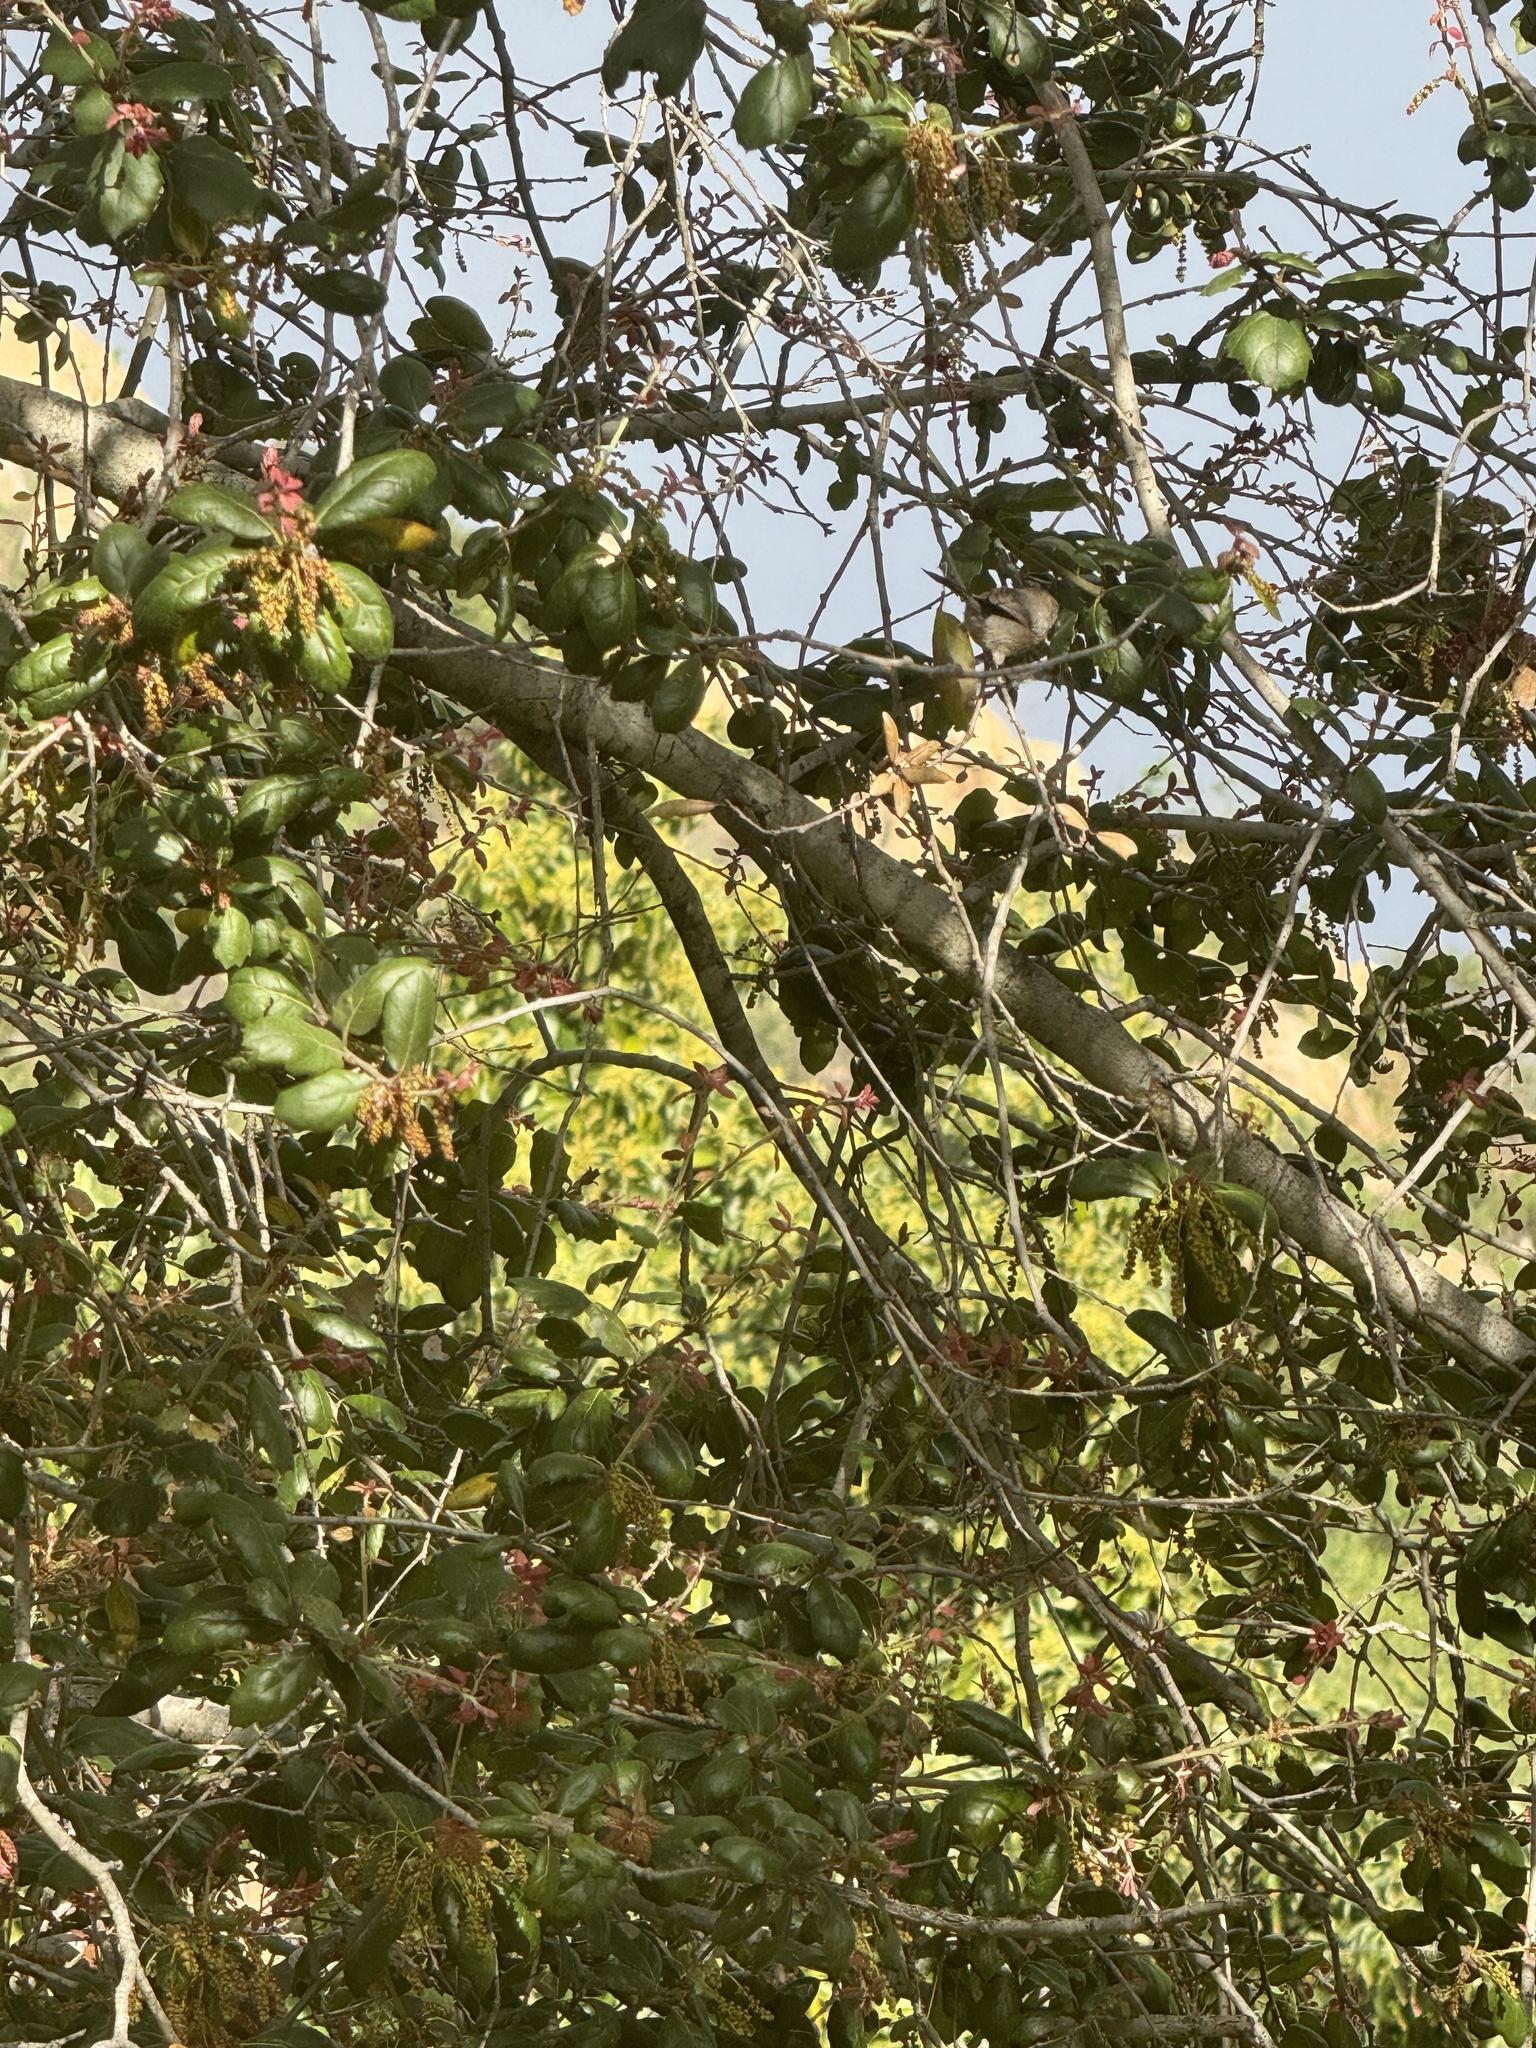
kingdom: Animalia
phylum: Chordata
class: Aves
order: Passeriformes
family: Aegithalidae
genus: Psaltriparus
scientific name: Psaltriparus minimus
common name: American bushtit
